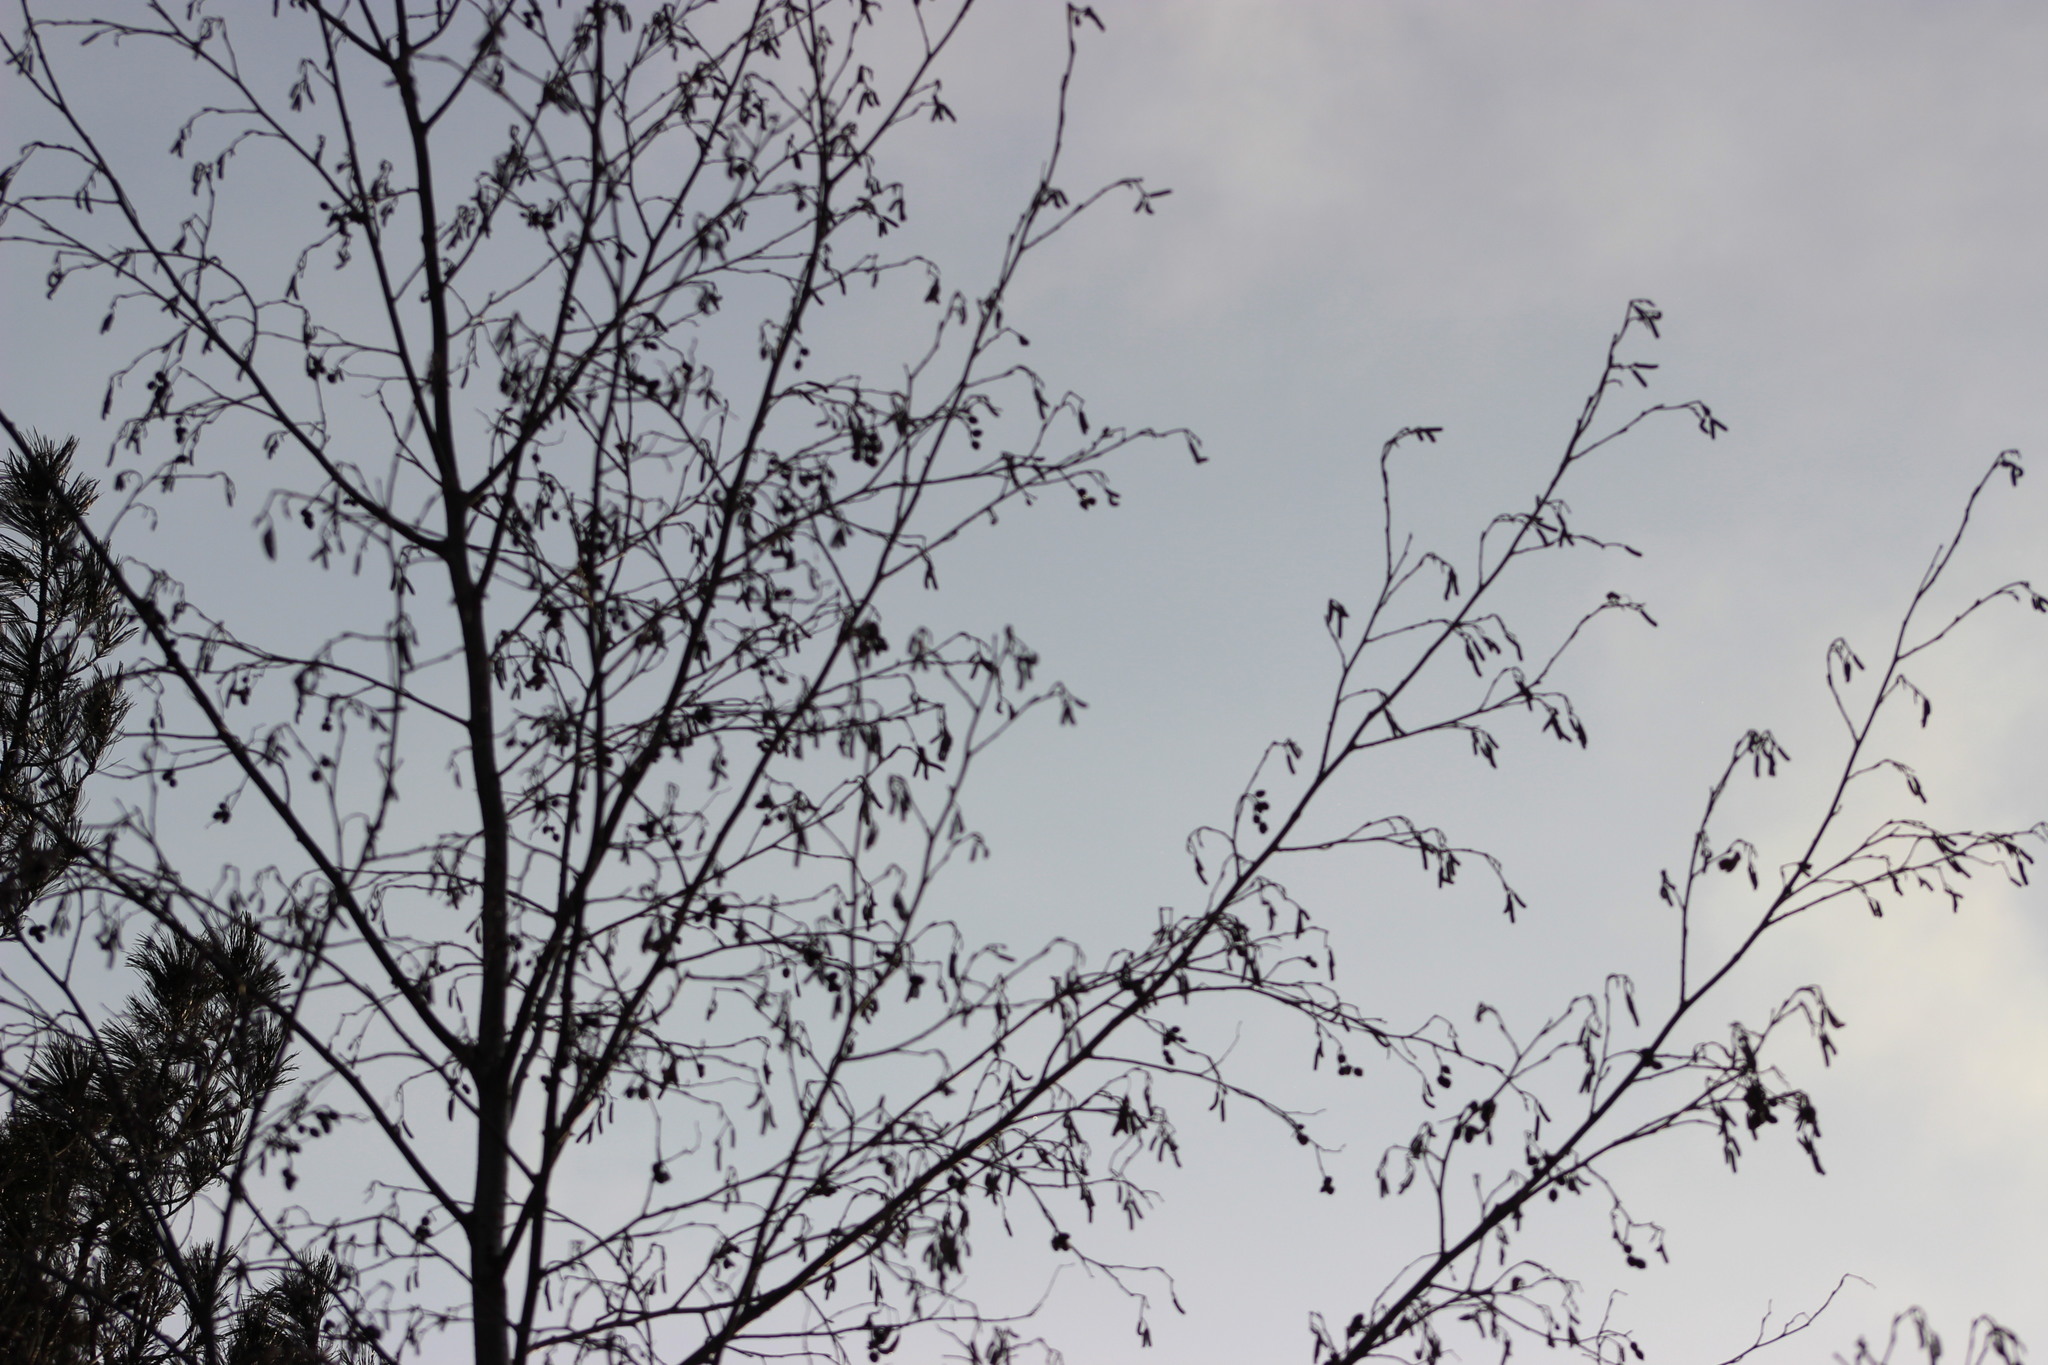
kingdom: Plantae
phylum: Tracheophyta
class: Magnoliopsida
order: Fagales
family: Betulaceae
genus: Alnus
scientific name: Alnus incana
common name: Grey alder
